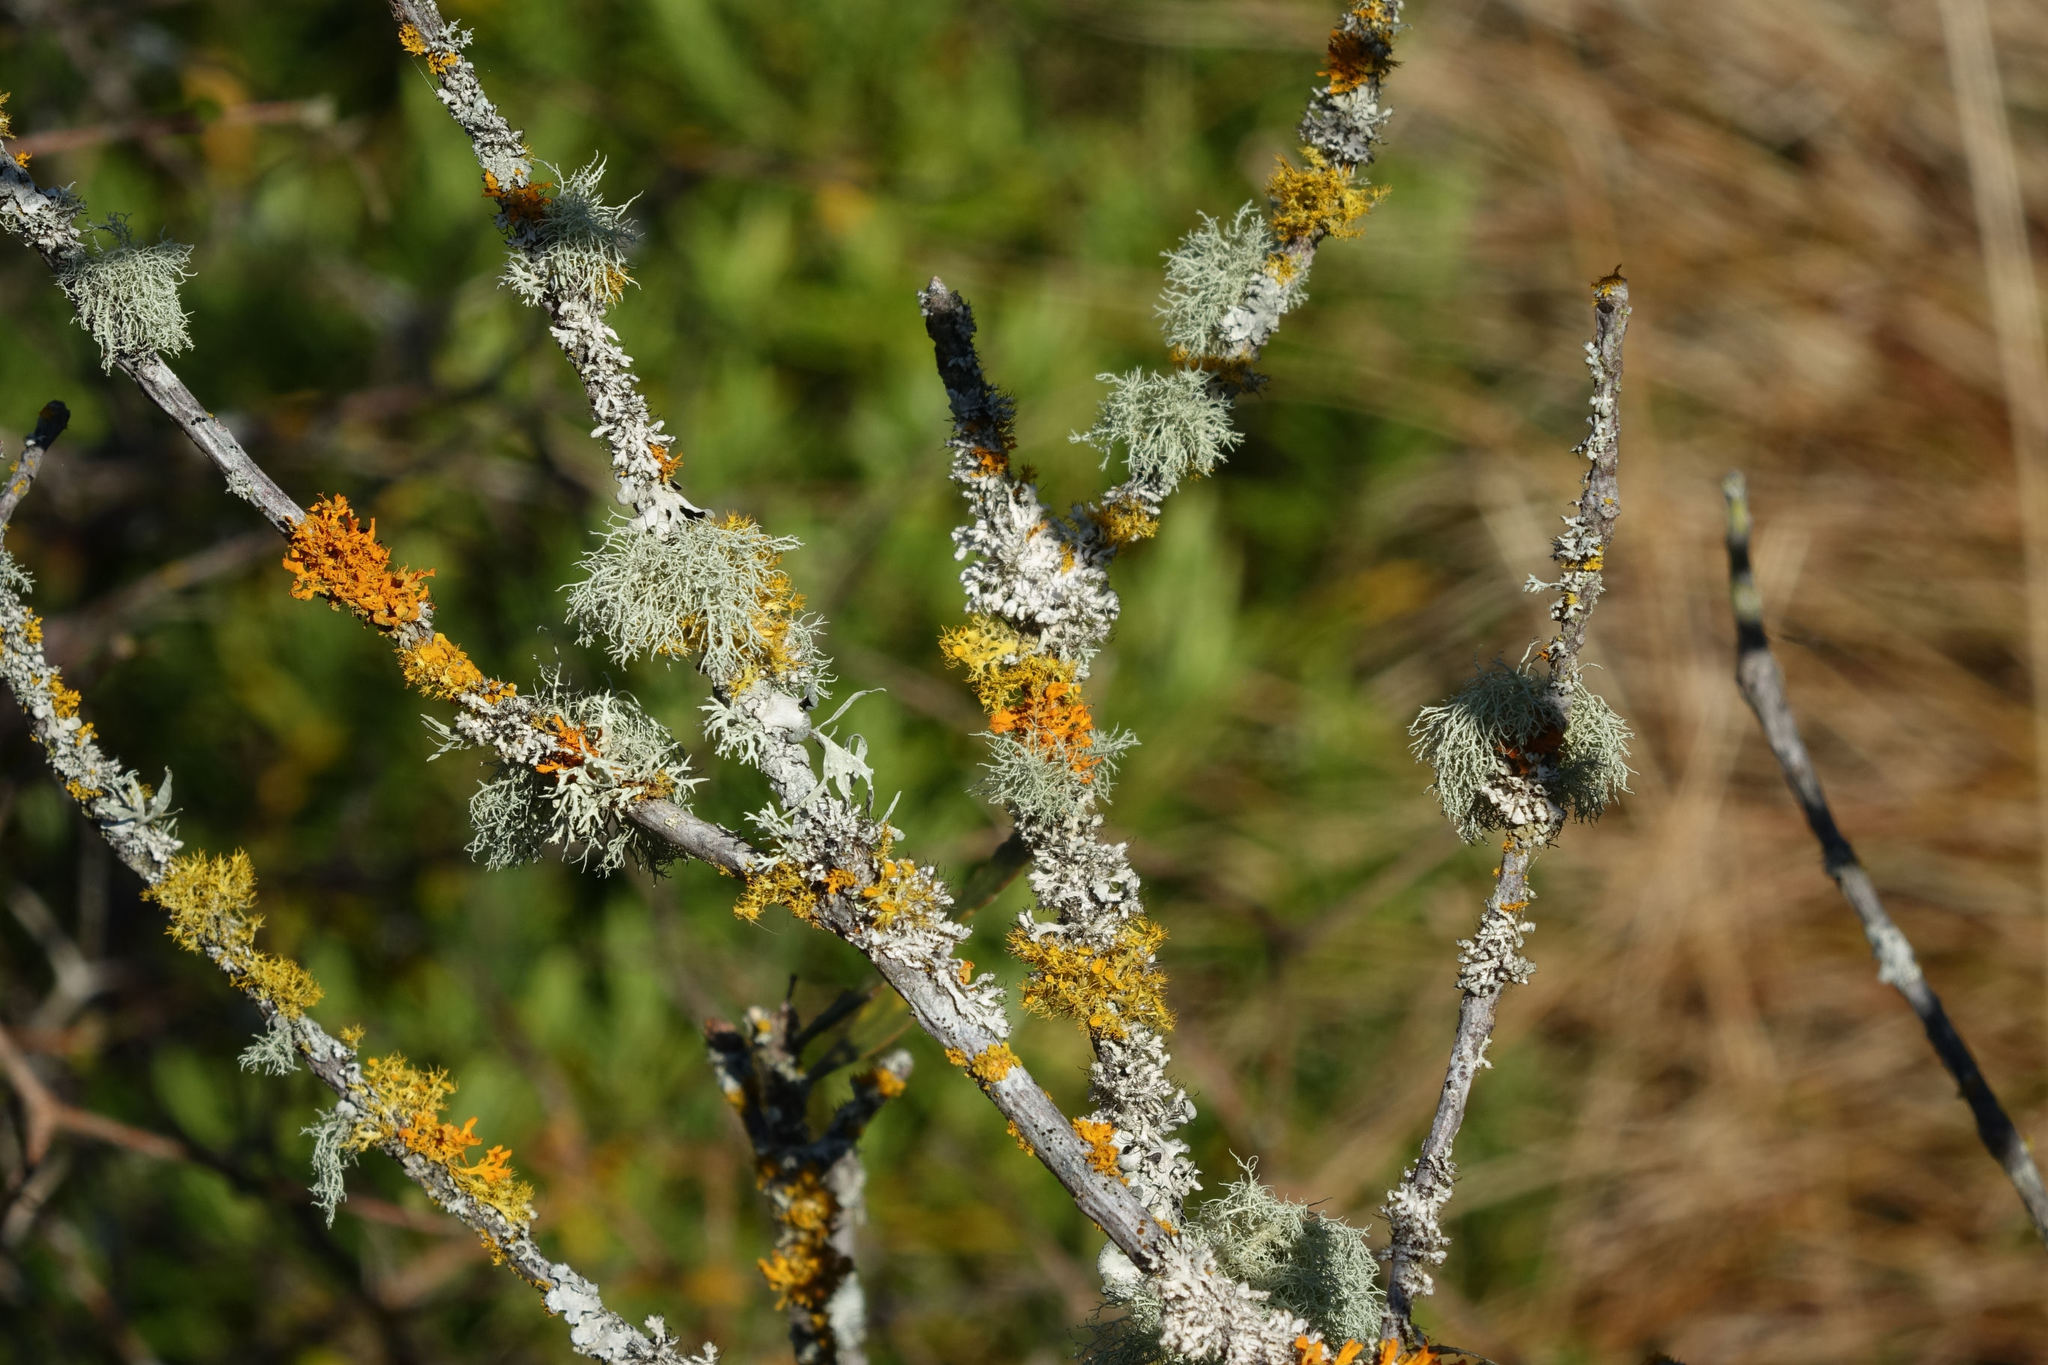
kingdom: Fungi
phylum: Ascomycota
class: Lecanoromycetes
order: Teloschistales
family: Teloschistaceae
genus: Niorma
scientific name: Niorma chrysophthalma
